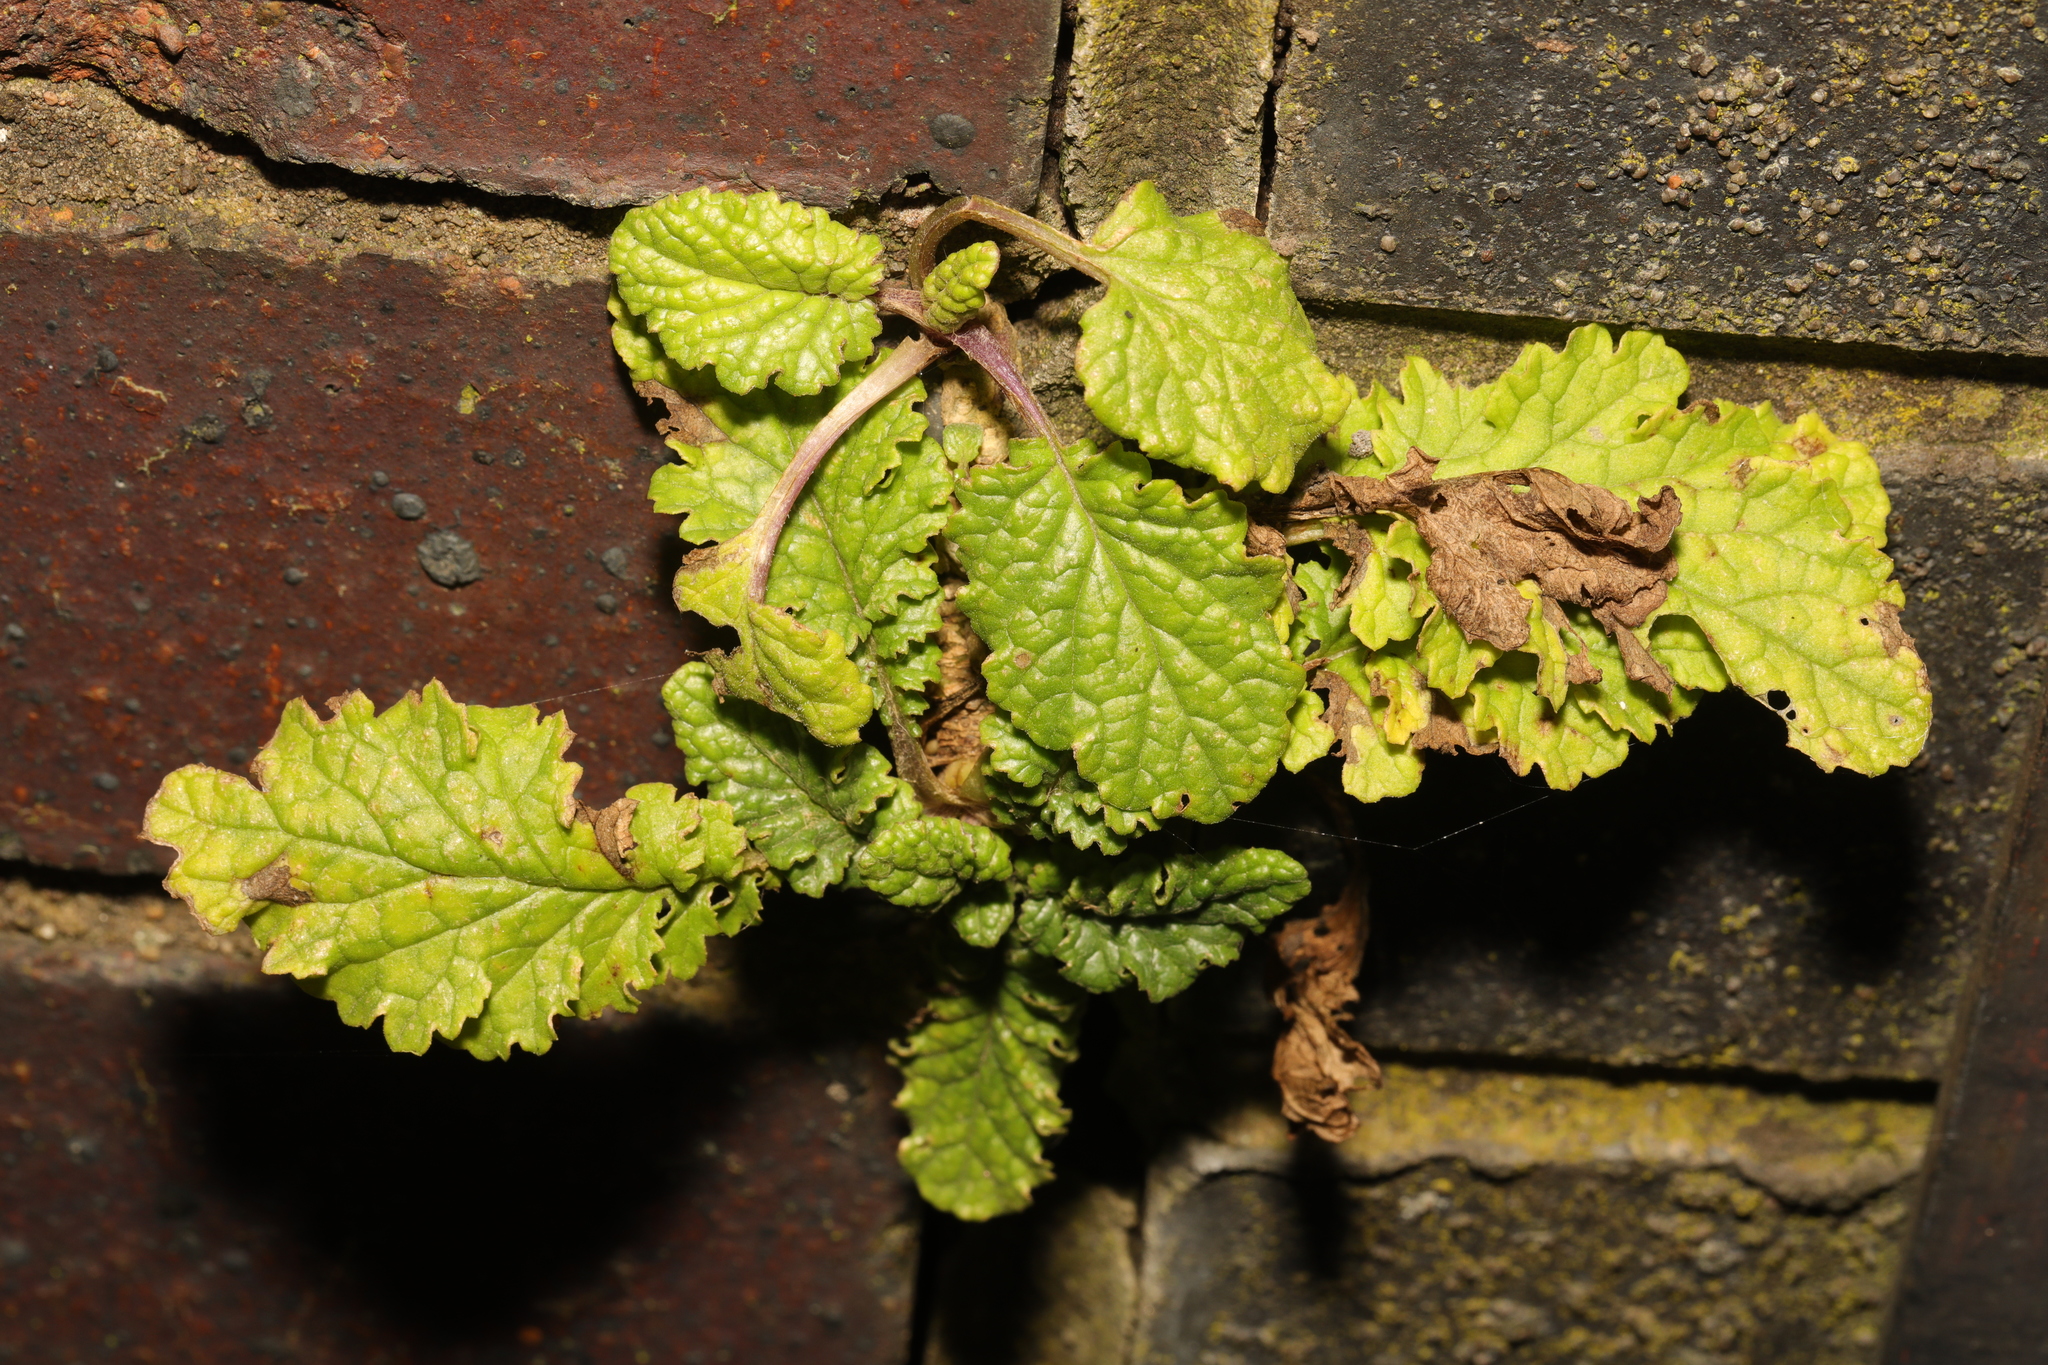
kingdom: Plantae
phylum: Tracheophyta
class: Magnoliopsida
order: Asterales
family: Asteraceae
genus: Jacobaea
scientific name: Jacobaea vulgaris
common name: Stinking willie
